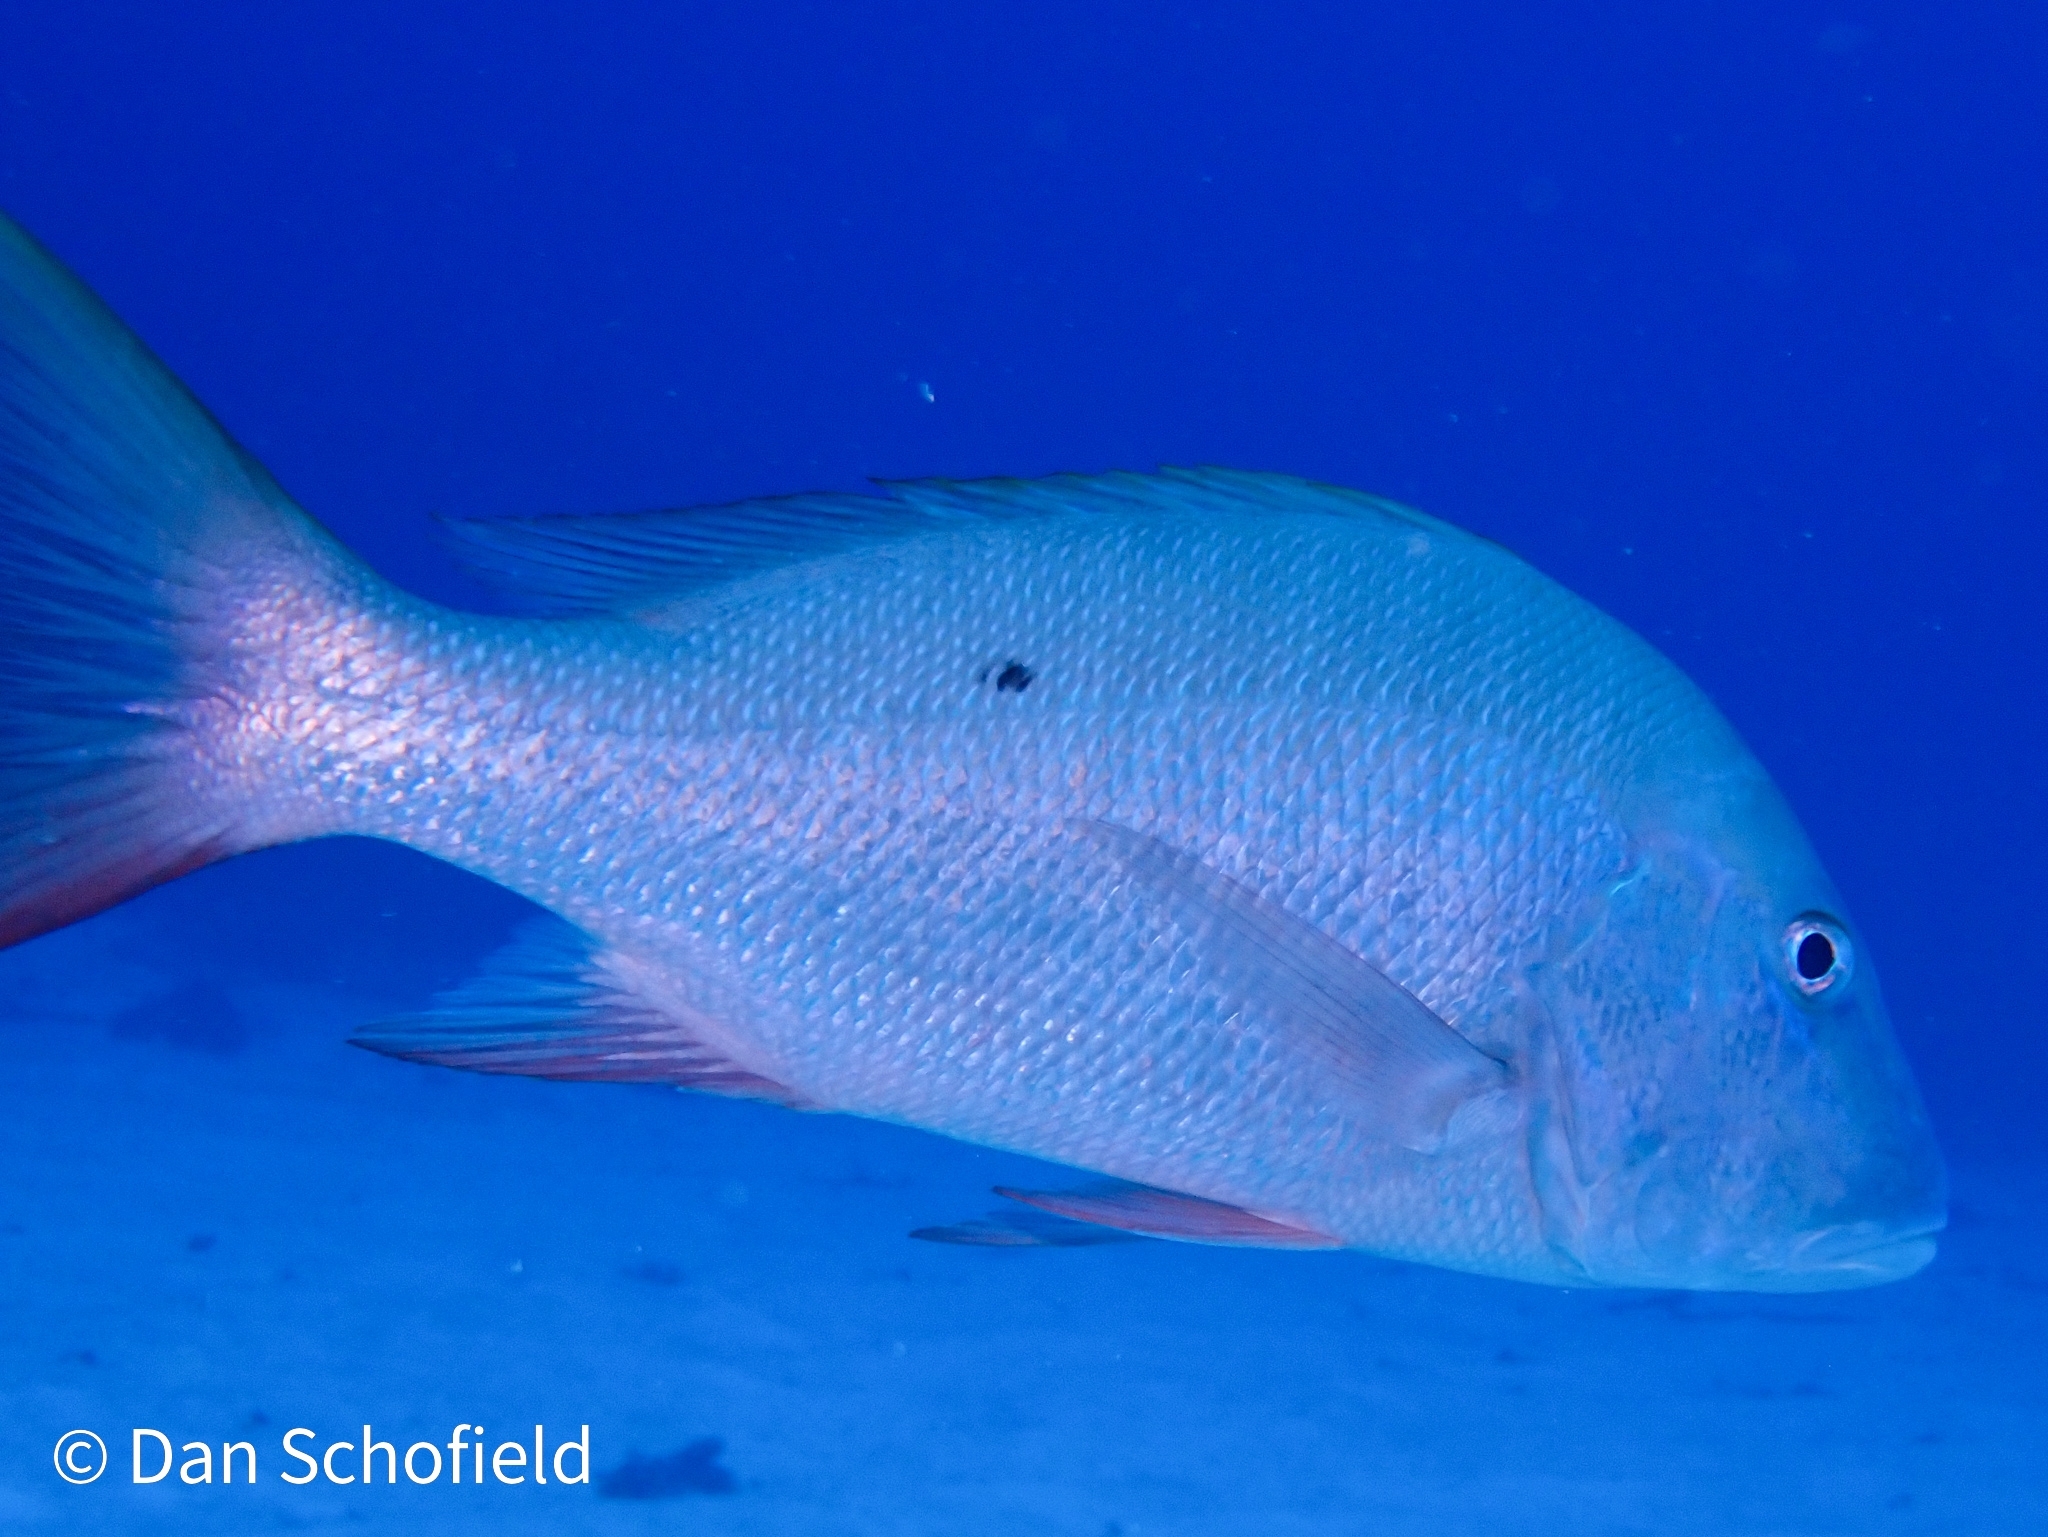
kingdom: Animalia
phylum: Chordata
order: Perciformes
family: Lutjanidae
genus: Lutjanus
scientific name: Lutjanus analis
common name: Mutton snapper
